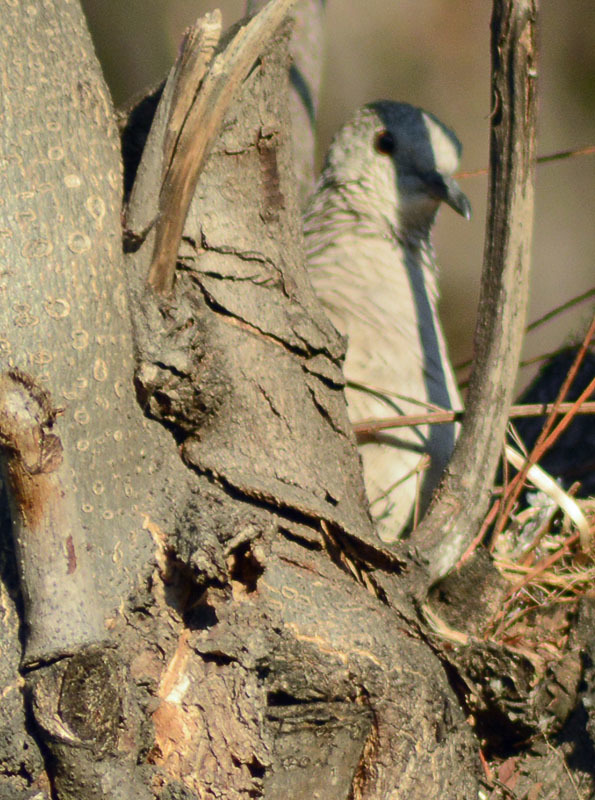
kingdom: Animalia
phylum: Chordata
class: Aves
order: Columbiformes
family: Columbidae
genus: Columbina
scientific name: Columbina inca
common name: Inca dove
